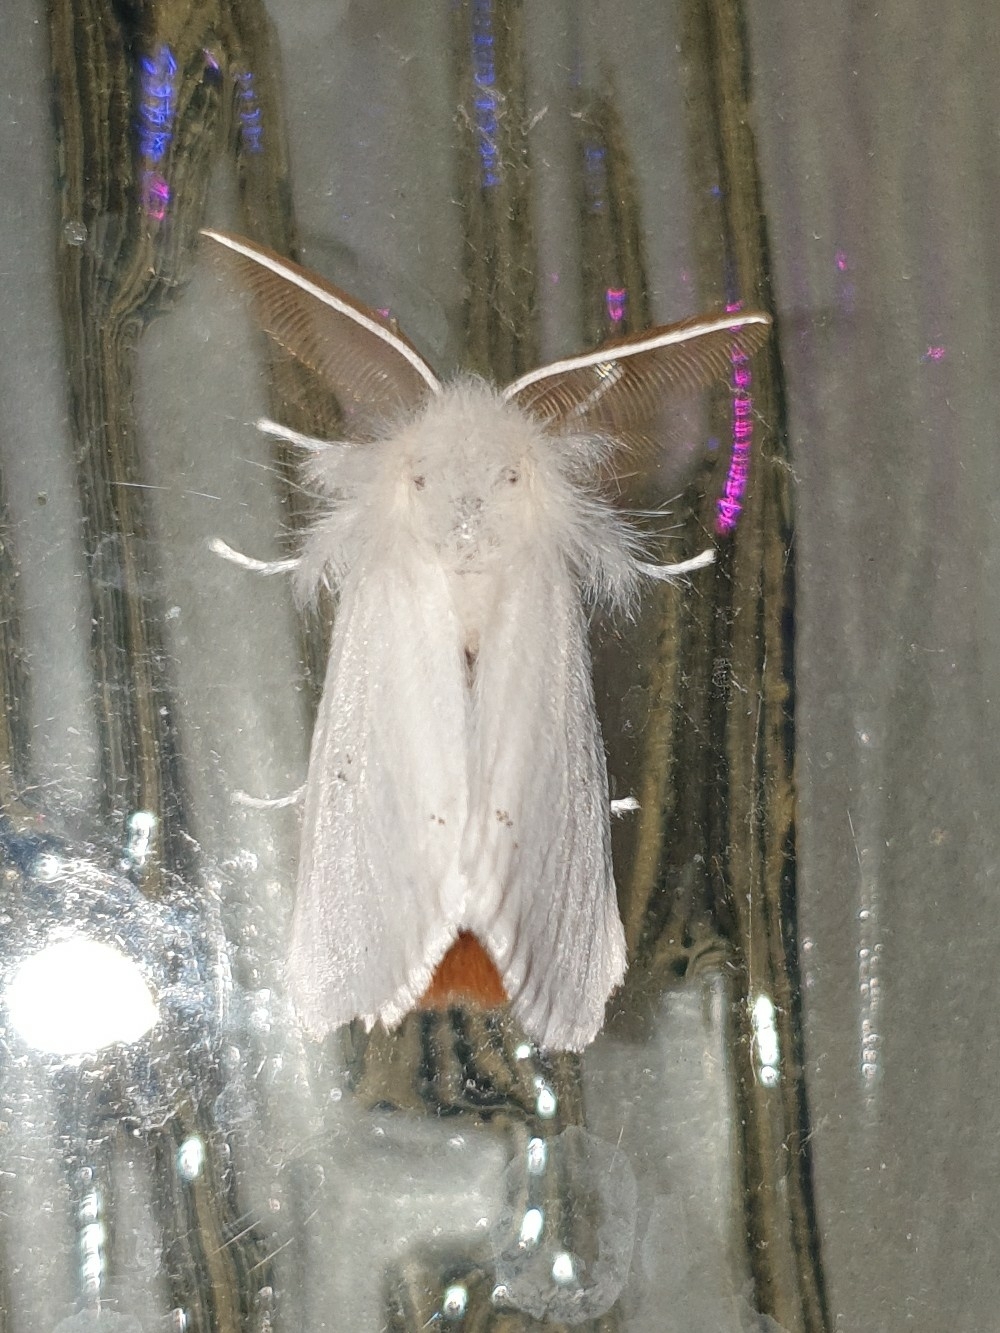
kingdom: Animalia
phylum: Arthropoda
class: Insecta
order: Lepidoptera
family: Erebidae
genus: Euproctis
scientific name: Euproctis chrysorrhoea
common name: Brown-tail
